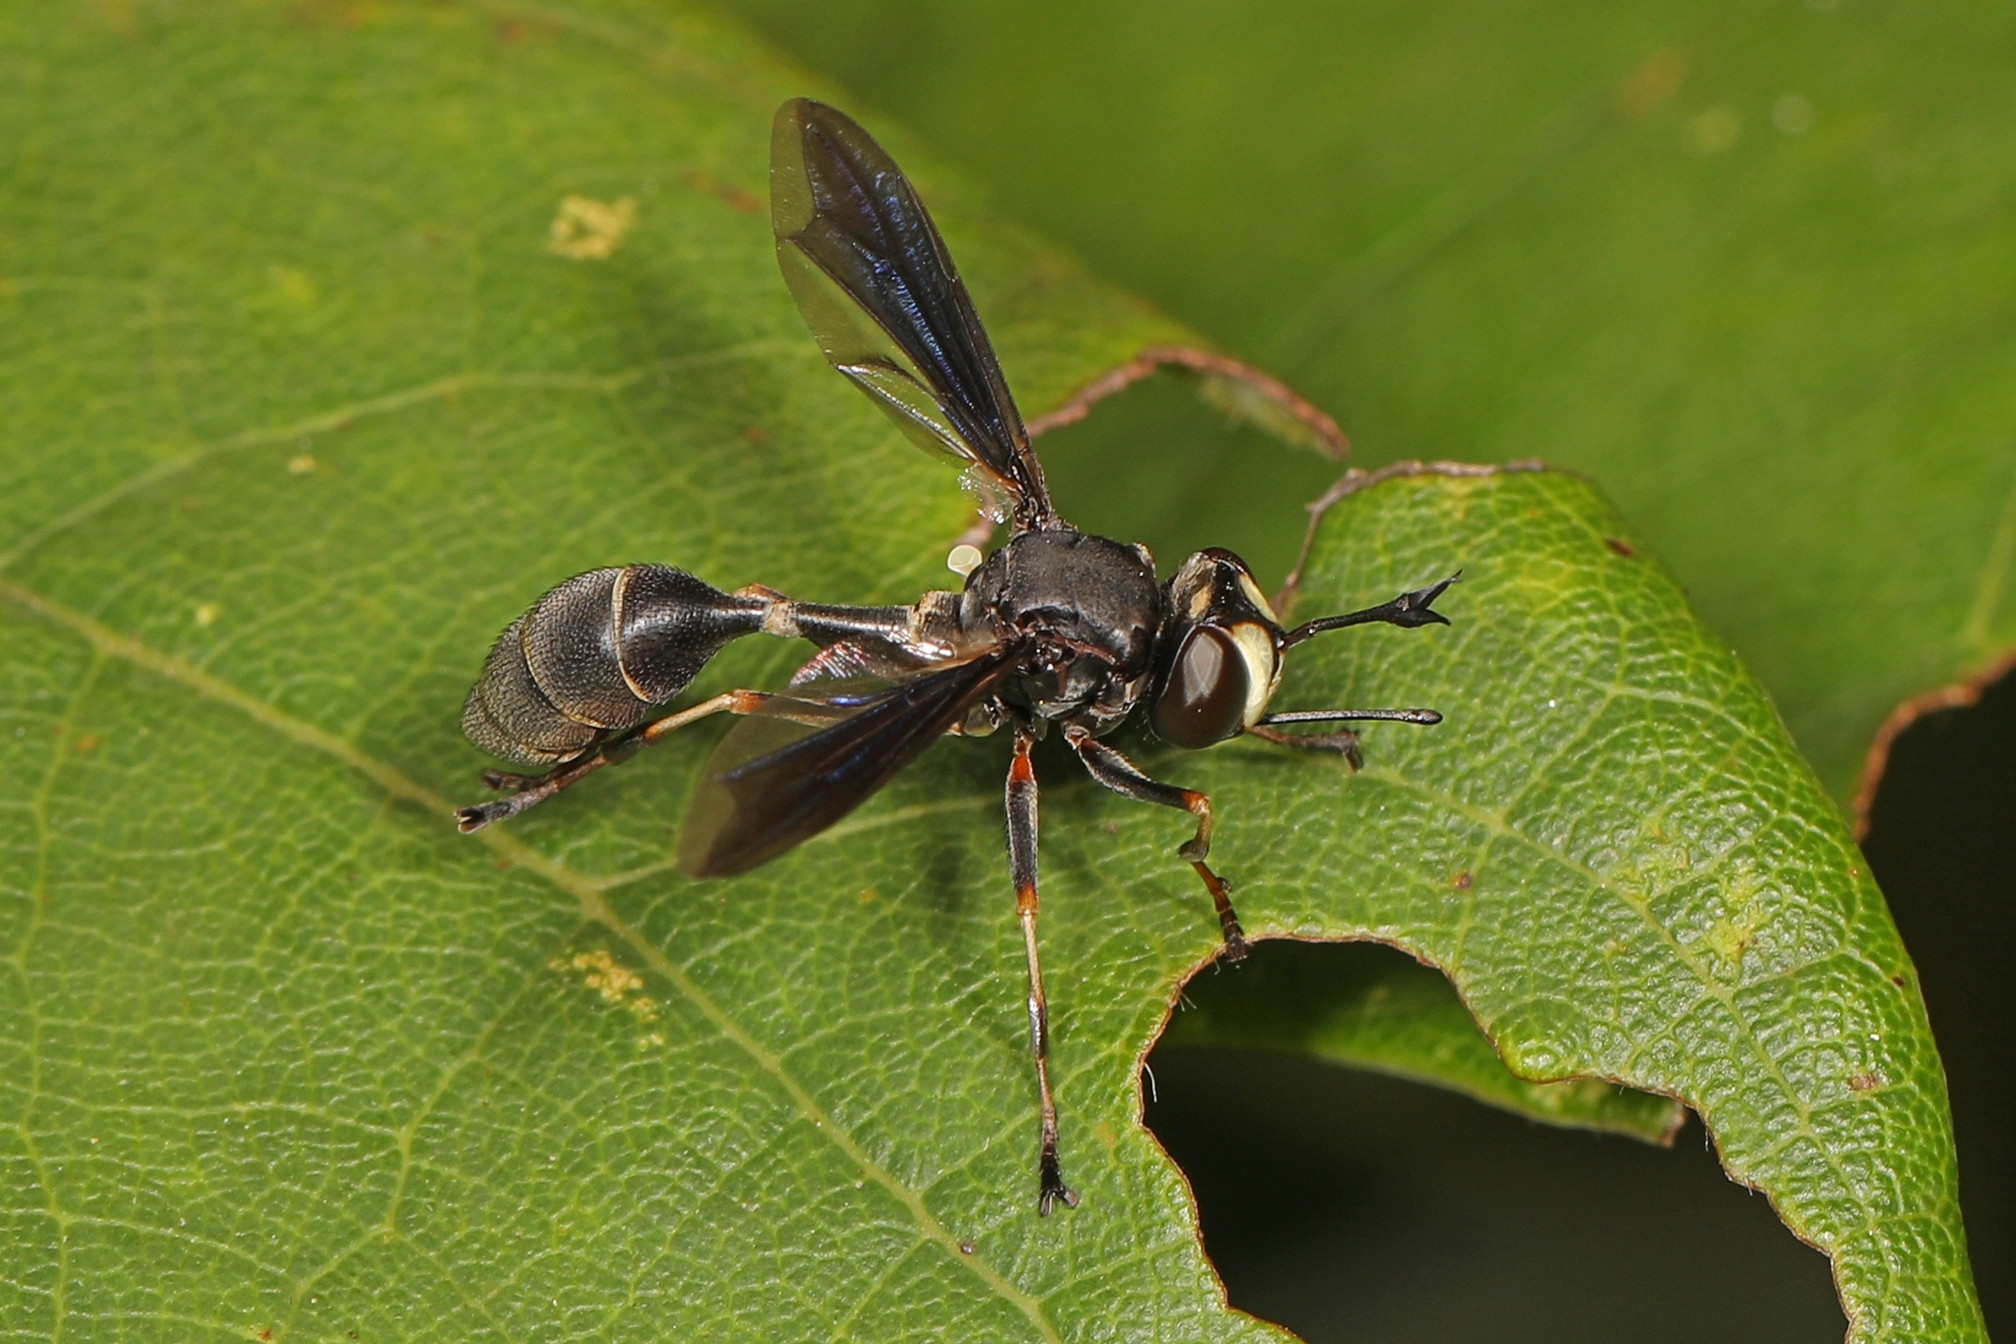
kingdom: Animalia
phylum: Arthropoda
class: Insecta
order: Diptera
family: Conopidae
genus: Physocephala
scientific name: Physocephala tibialis
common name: Common eastern physocephala
